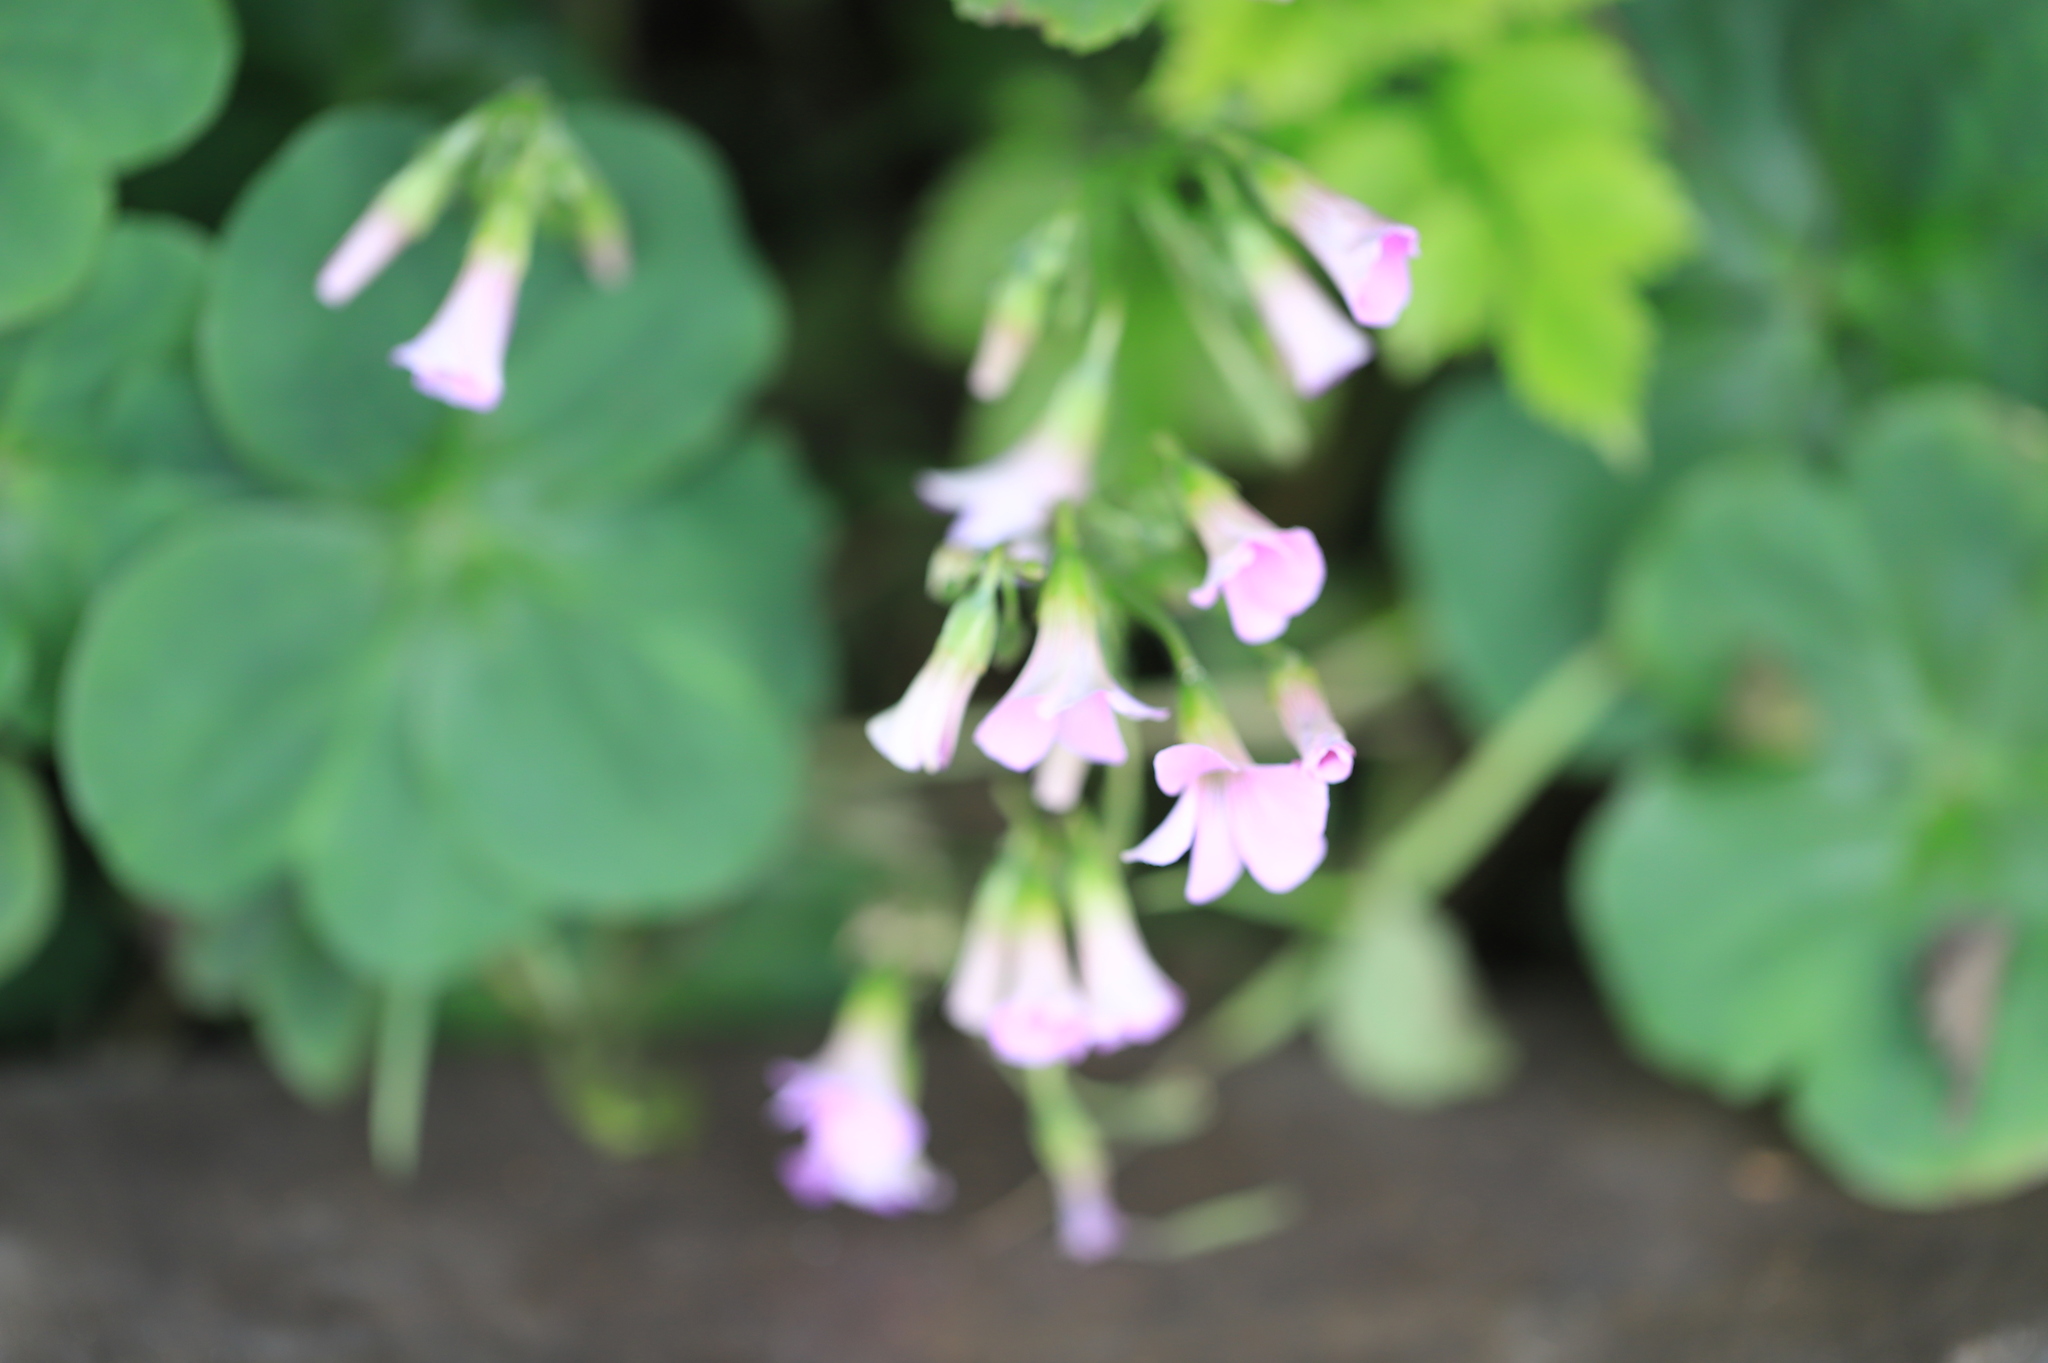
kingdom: Plantae
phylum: Tracheophyta
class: Magnoliopsida
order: Oxalidales
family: Oxalidaceae
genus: Oxalis
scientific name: Oxalis debilis
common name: Large-flowered pink-sorrel
